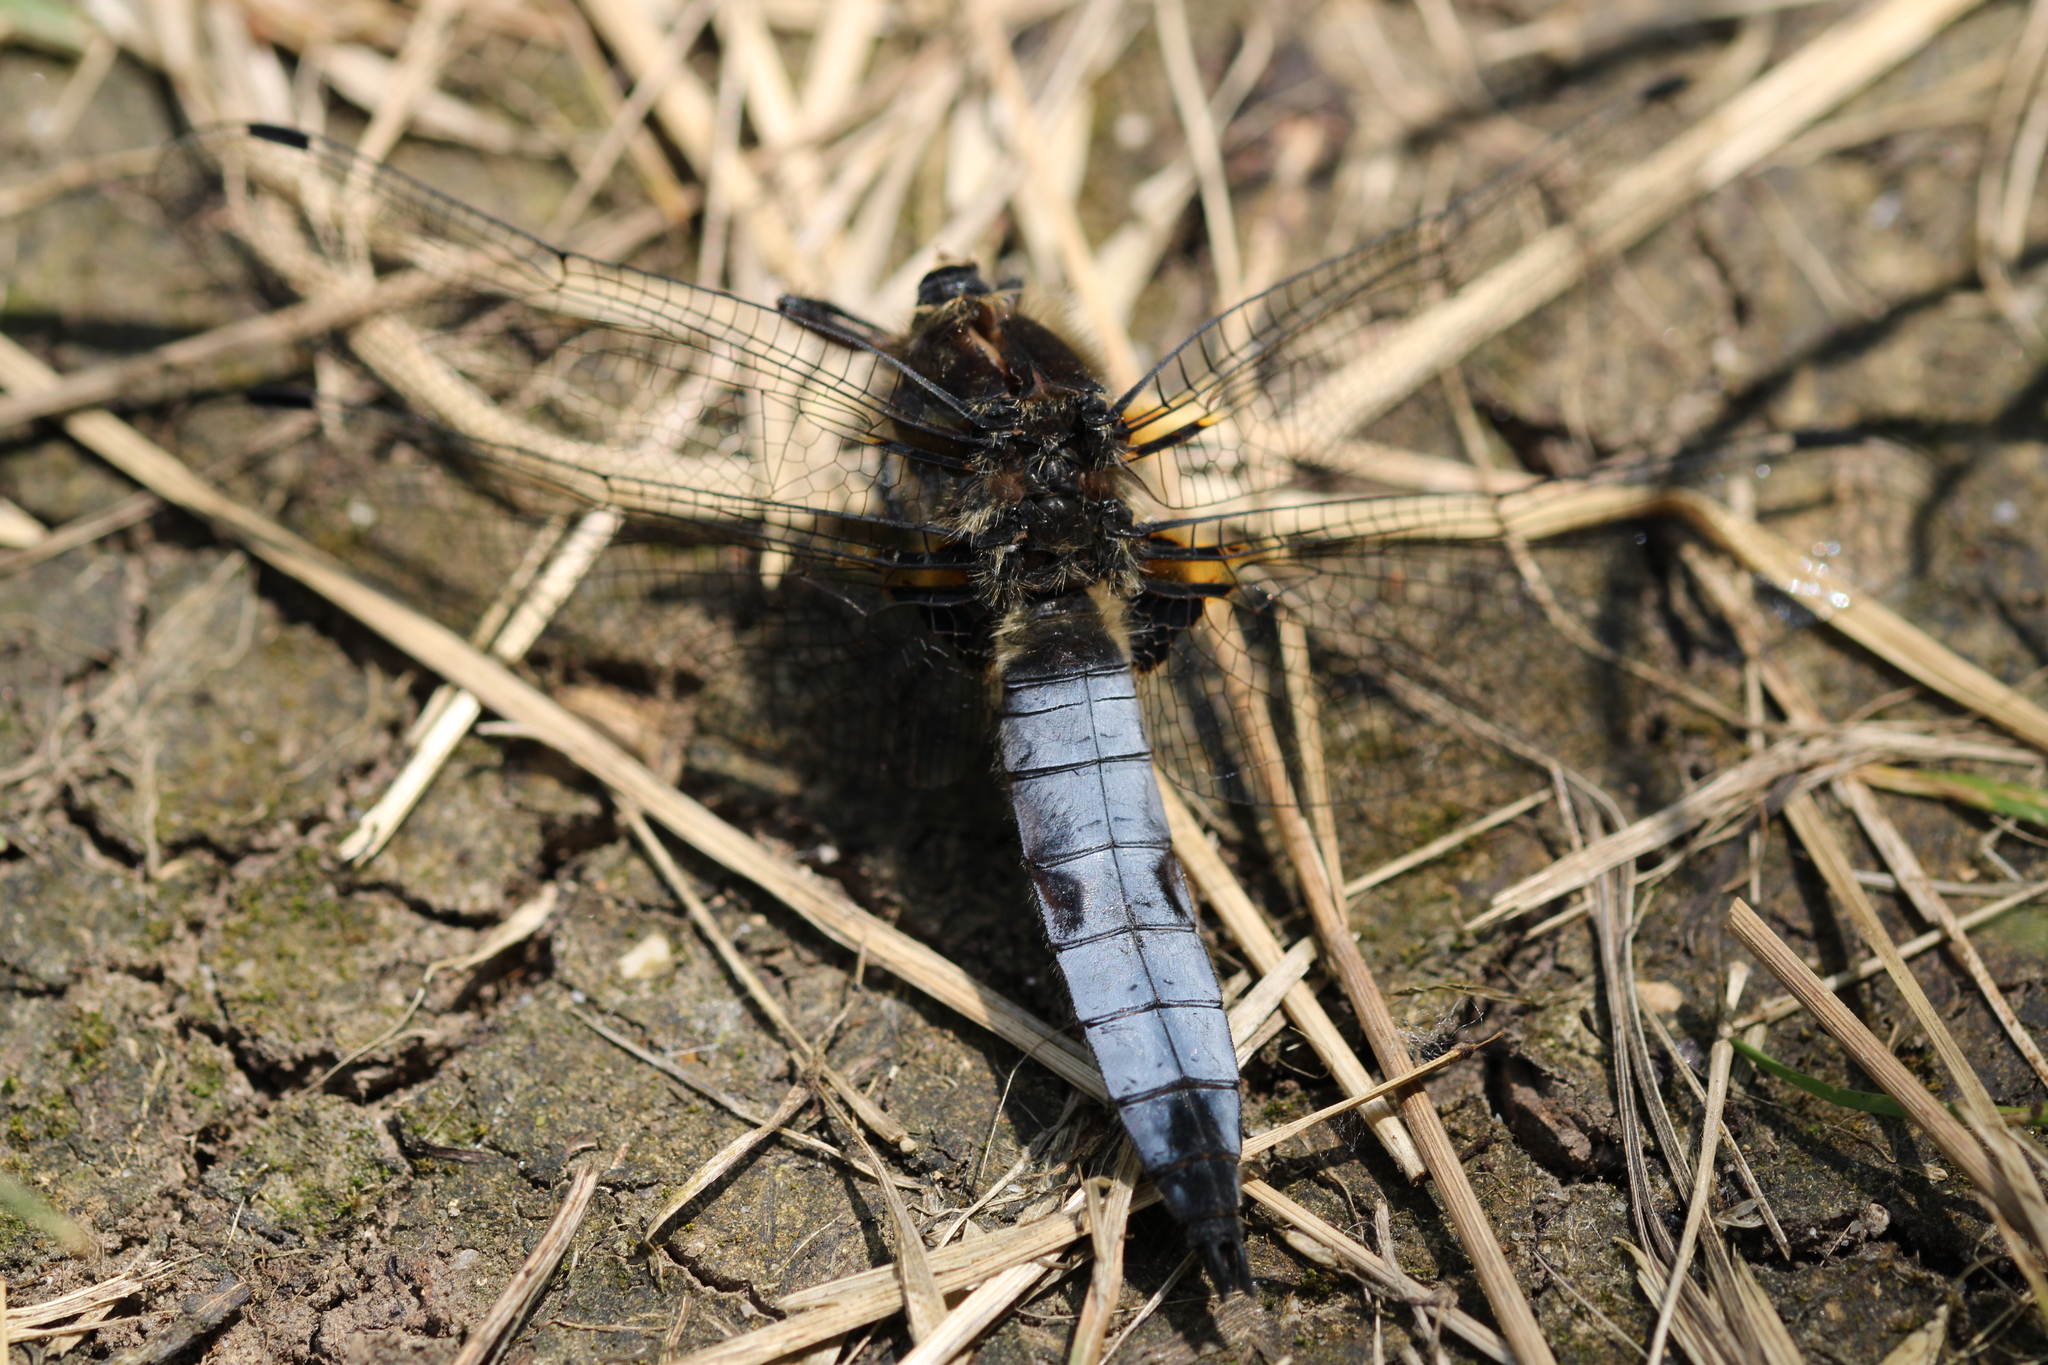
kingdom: Animalia
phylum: Arthropoda
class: Insecta
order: Odonata
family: Libellulidae
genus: Libellula
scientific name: Libellula fulva
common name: Blue chaser
